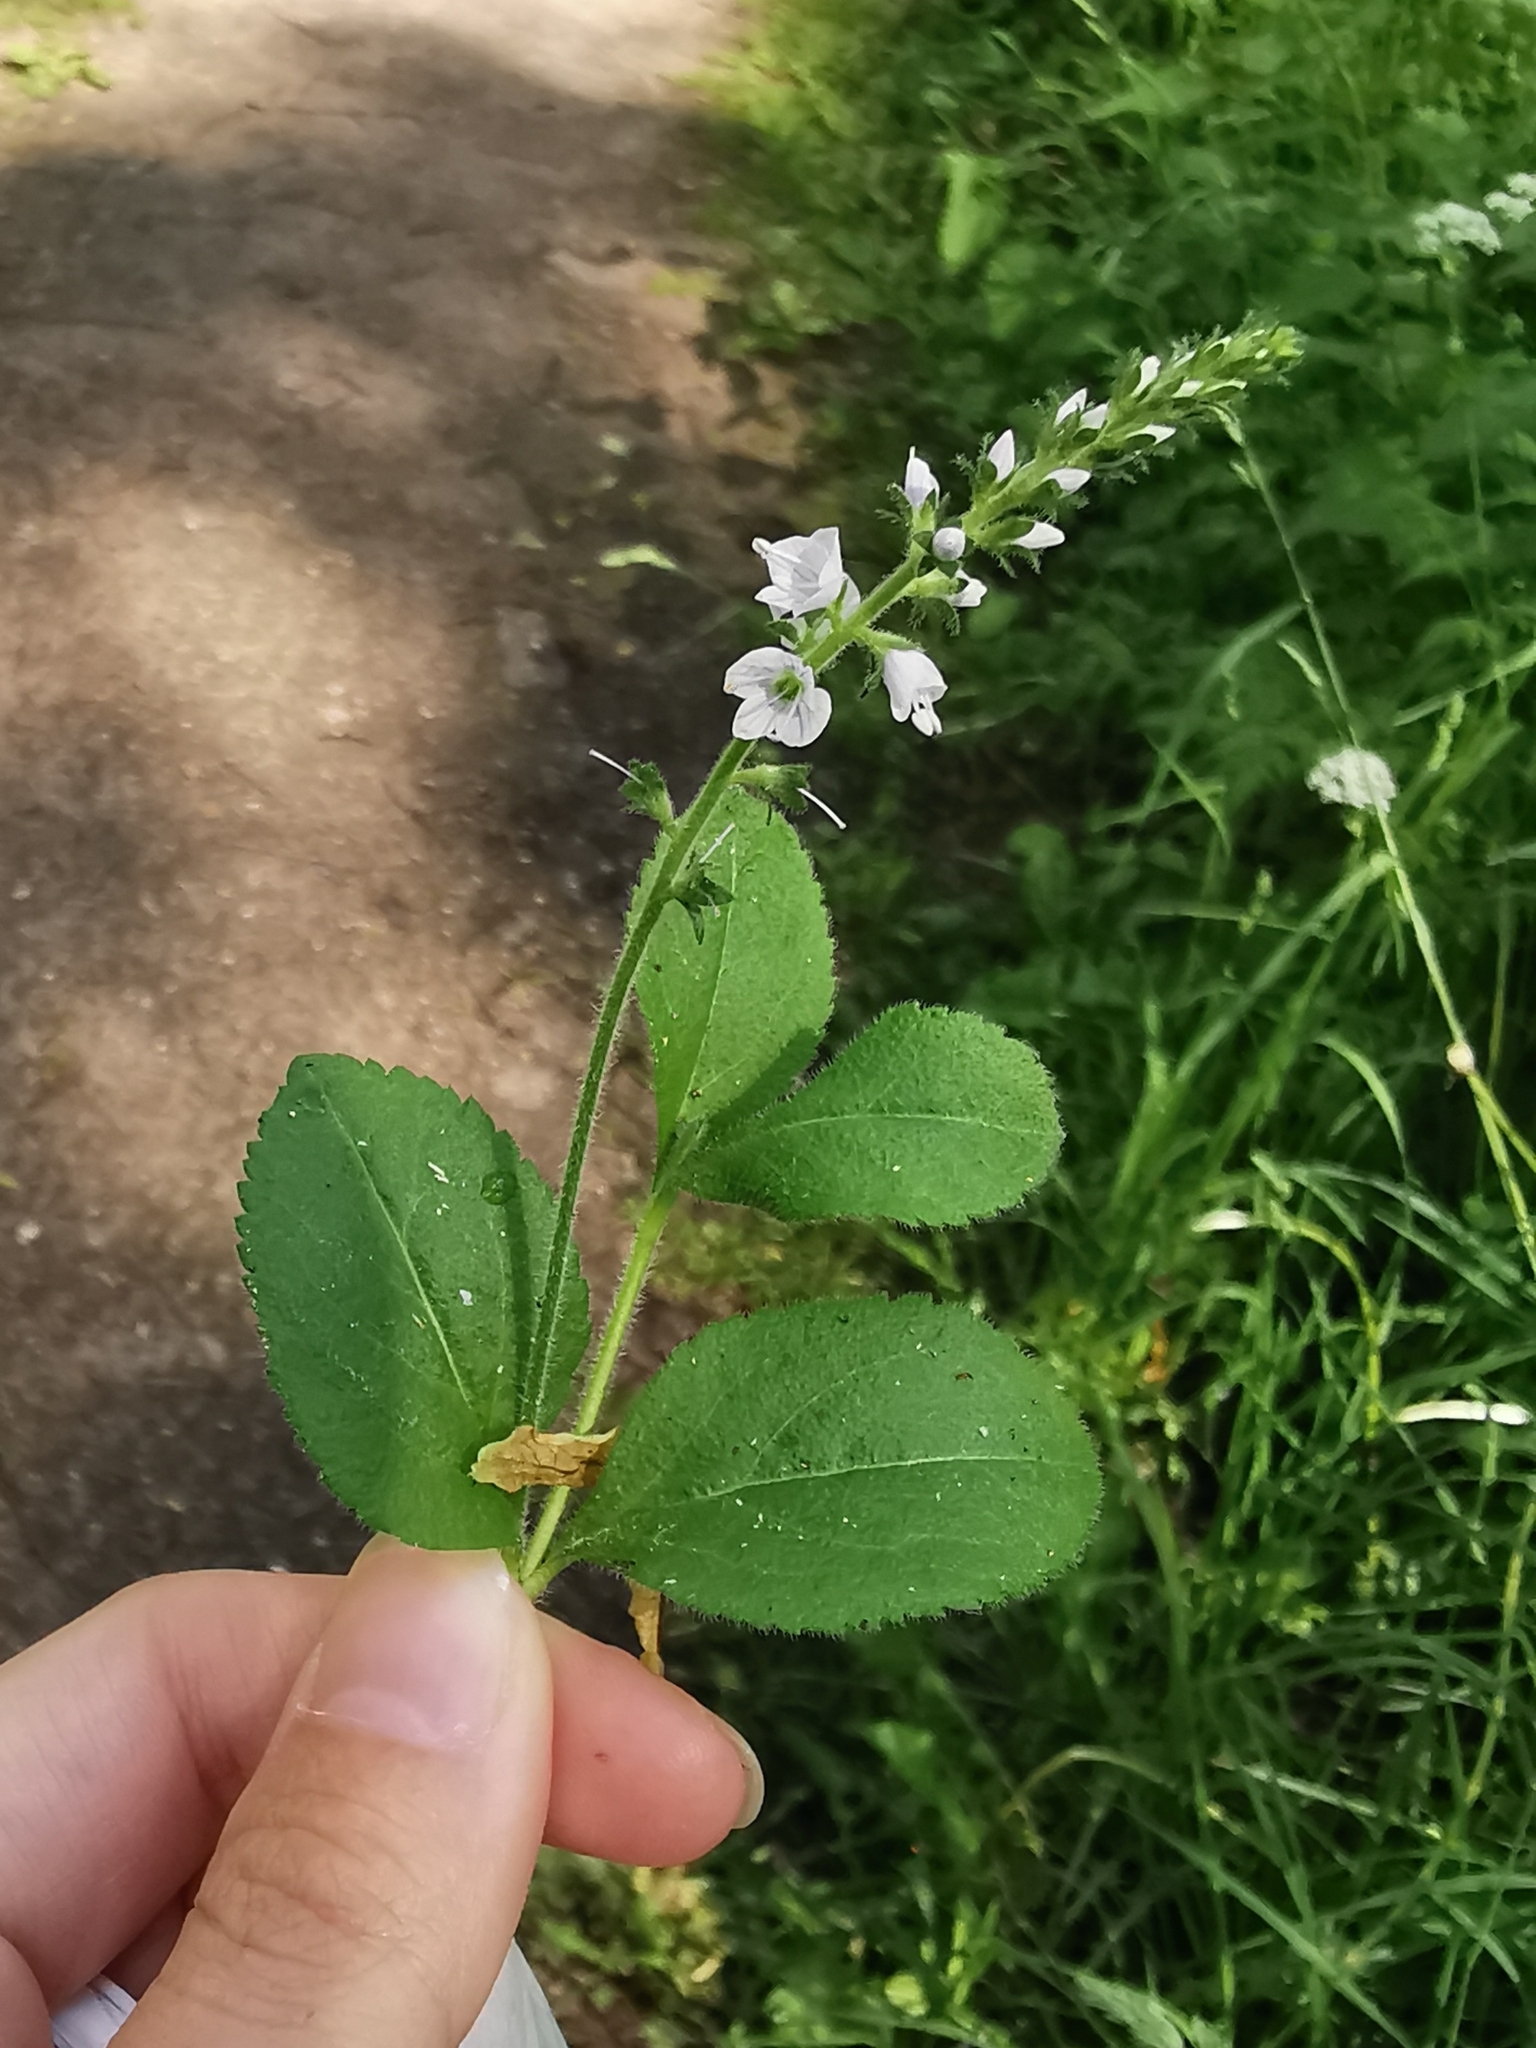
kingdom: Plantae
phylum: Tracheophyta
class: Magnoliopsida
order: Lamiales
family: Plantaginaceae
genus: Veronica
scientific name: Veronica officinalis
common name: Common speedwell
